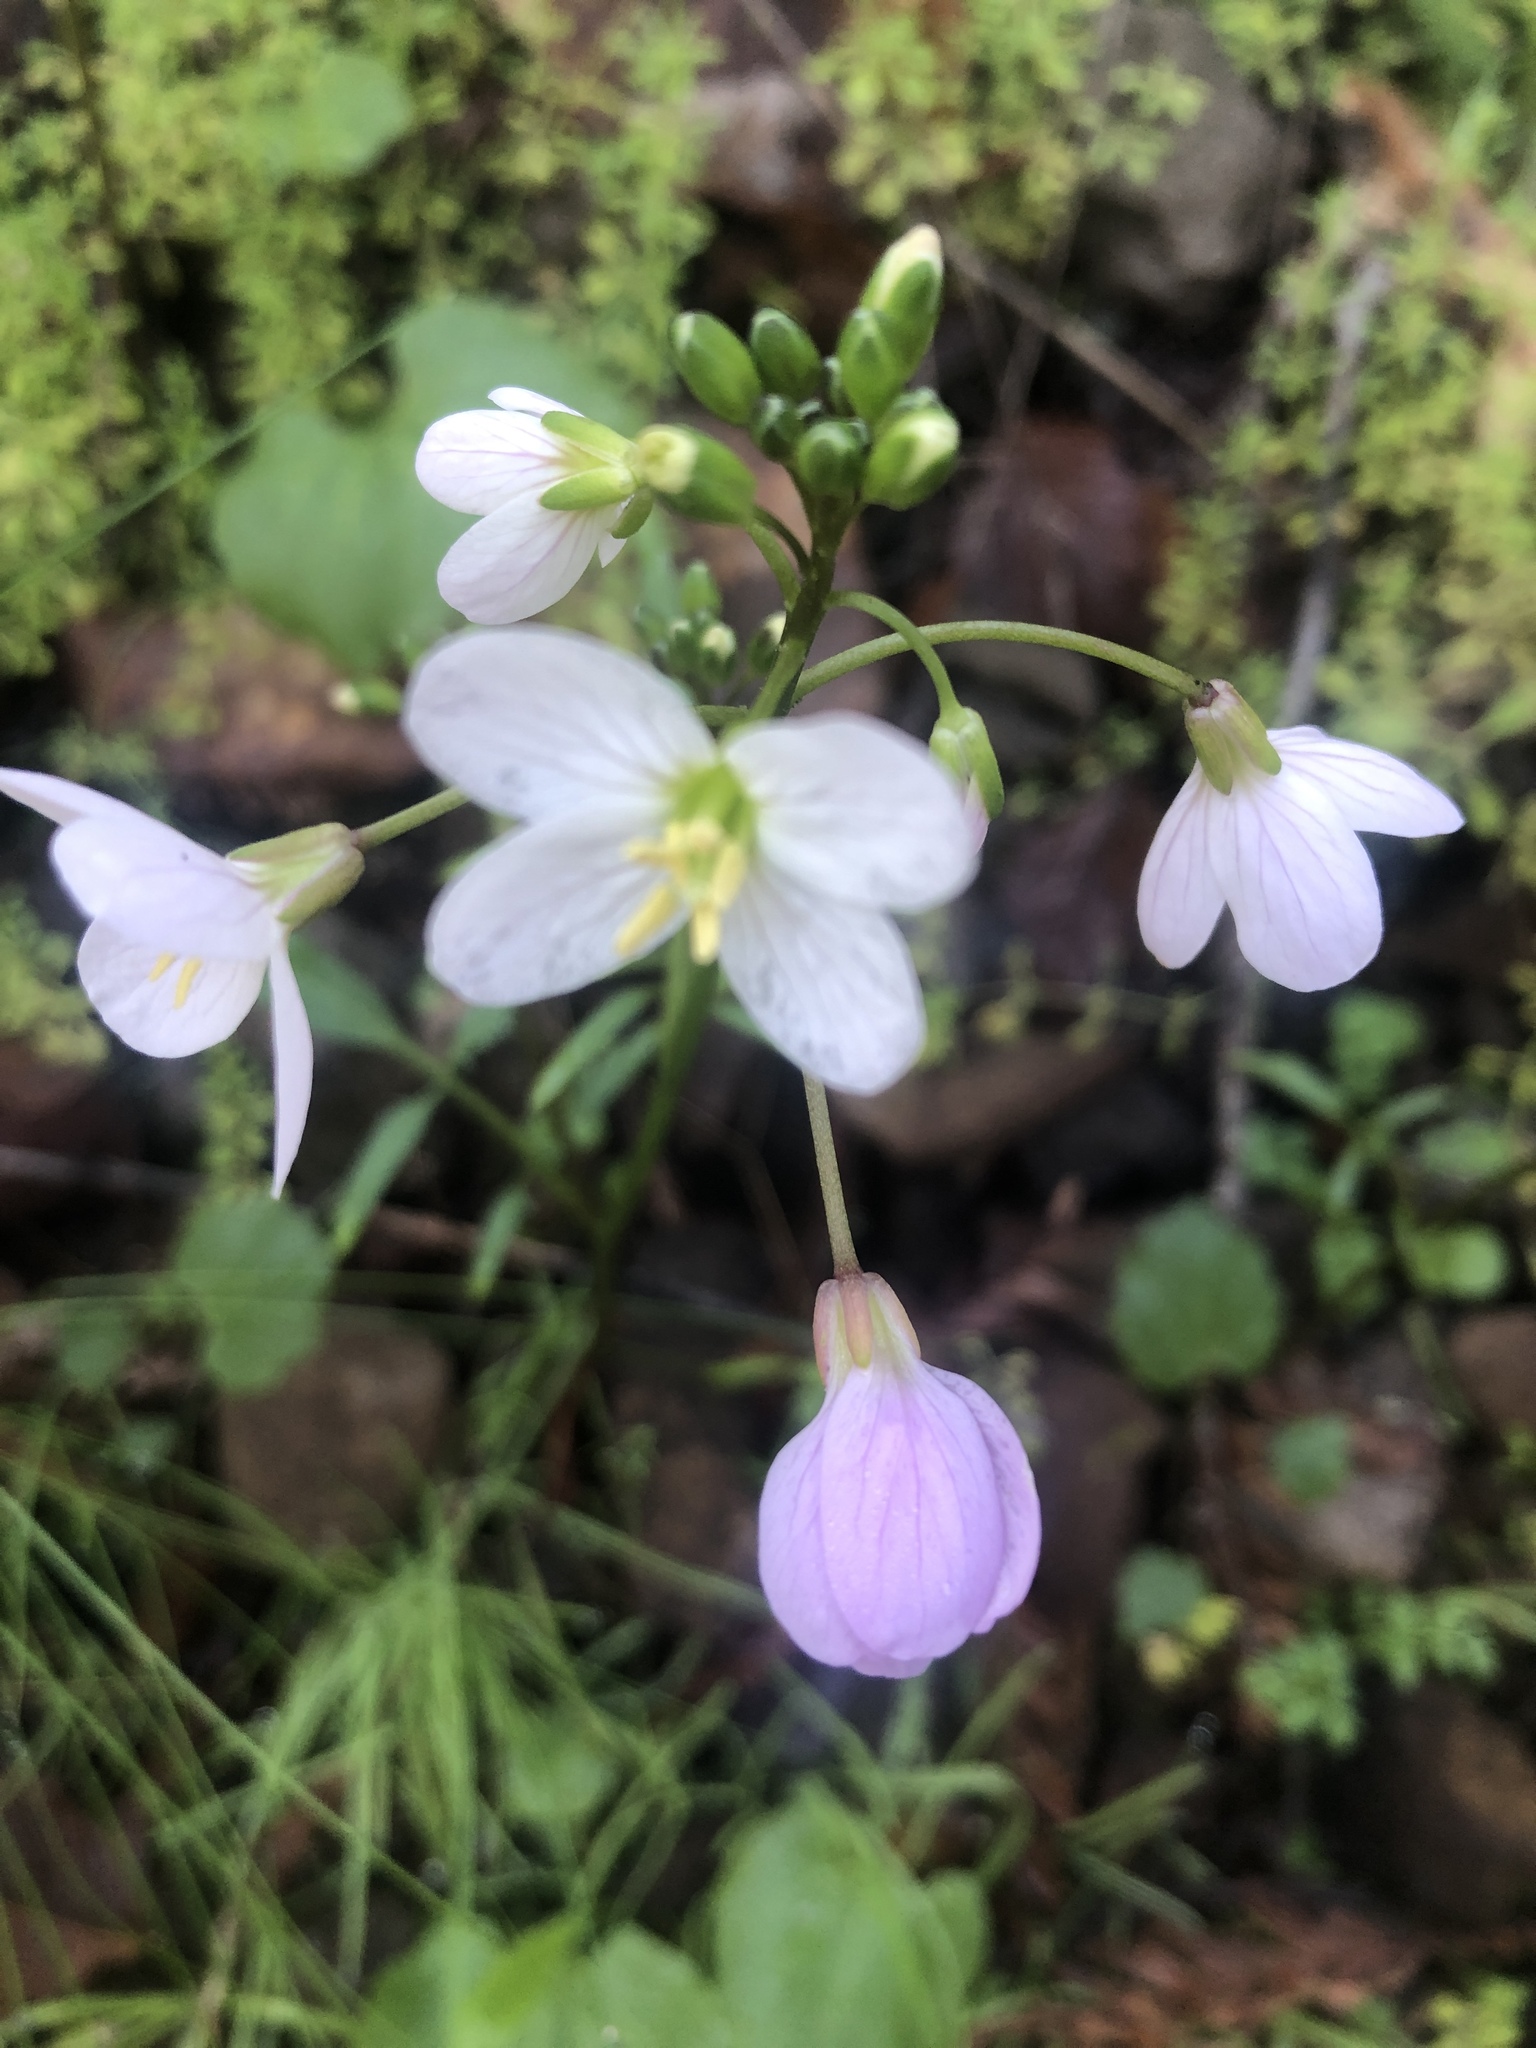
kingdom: Plantae
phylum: Tracheophyta
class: Magnoliopsida
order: Brassicales
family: Brassicaceae
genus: Cardamine
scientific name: Cardamine californica
